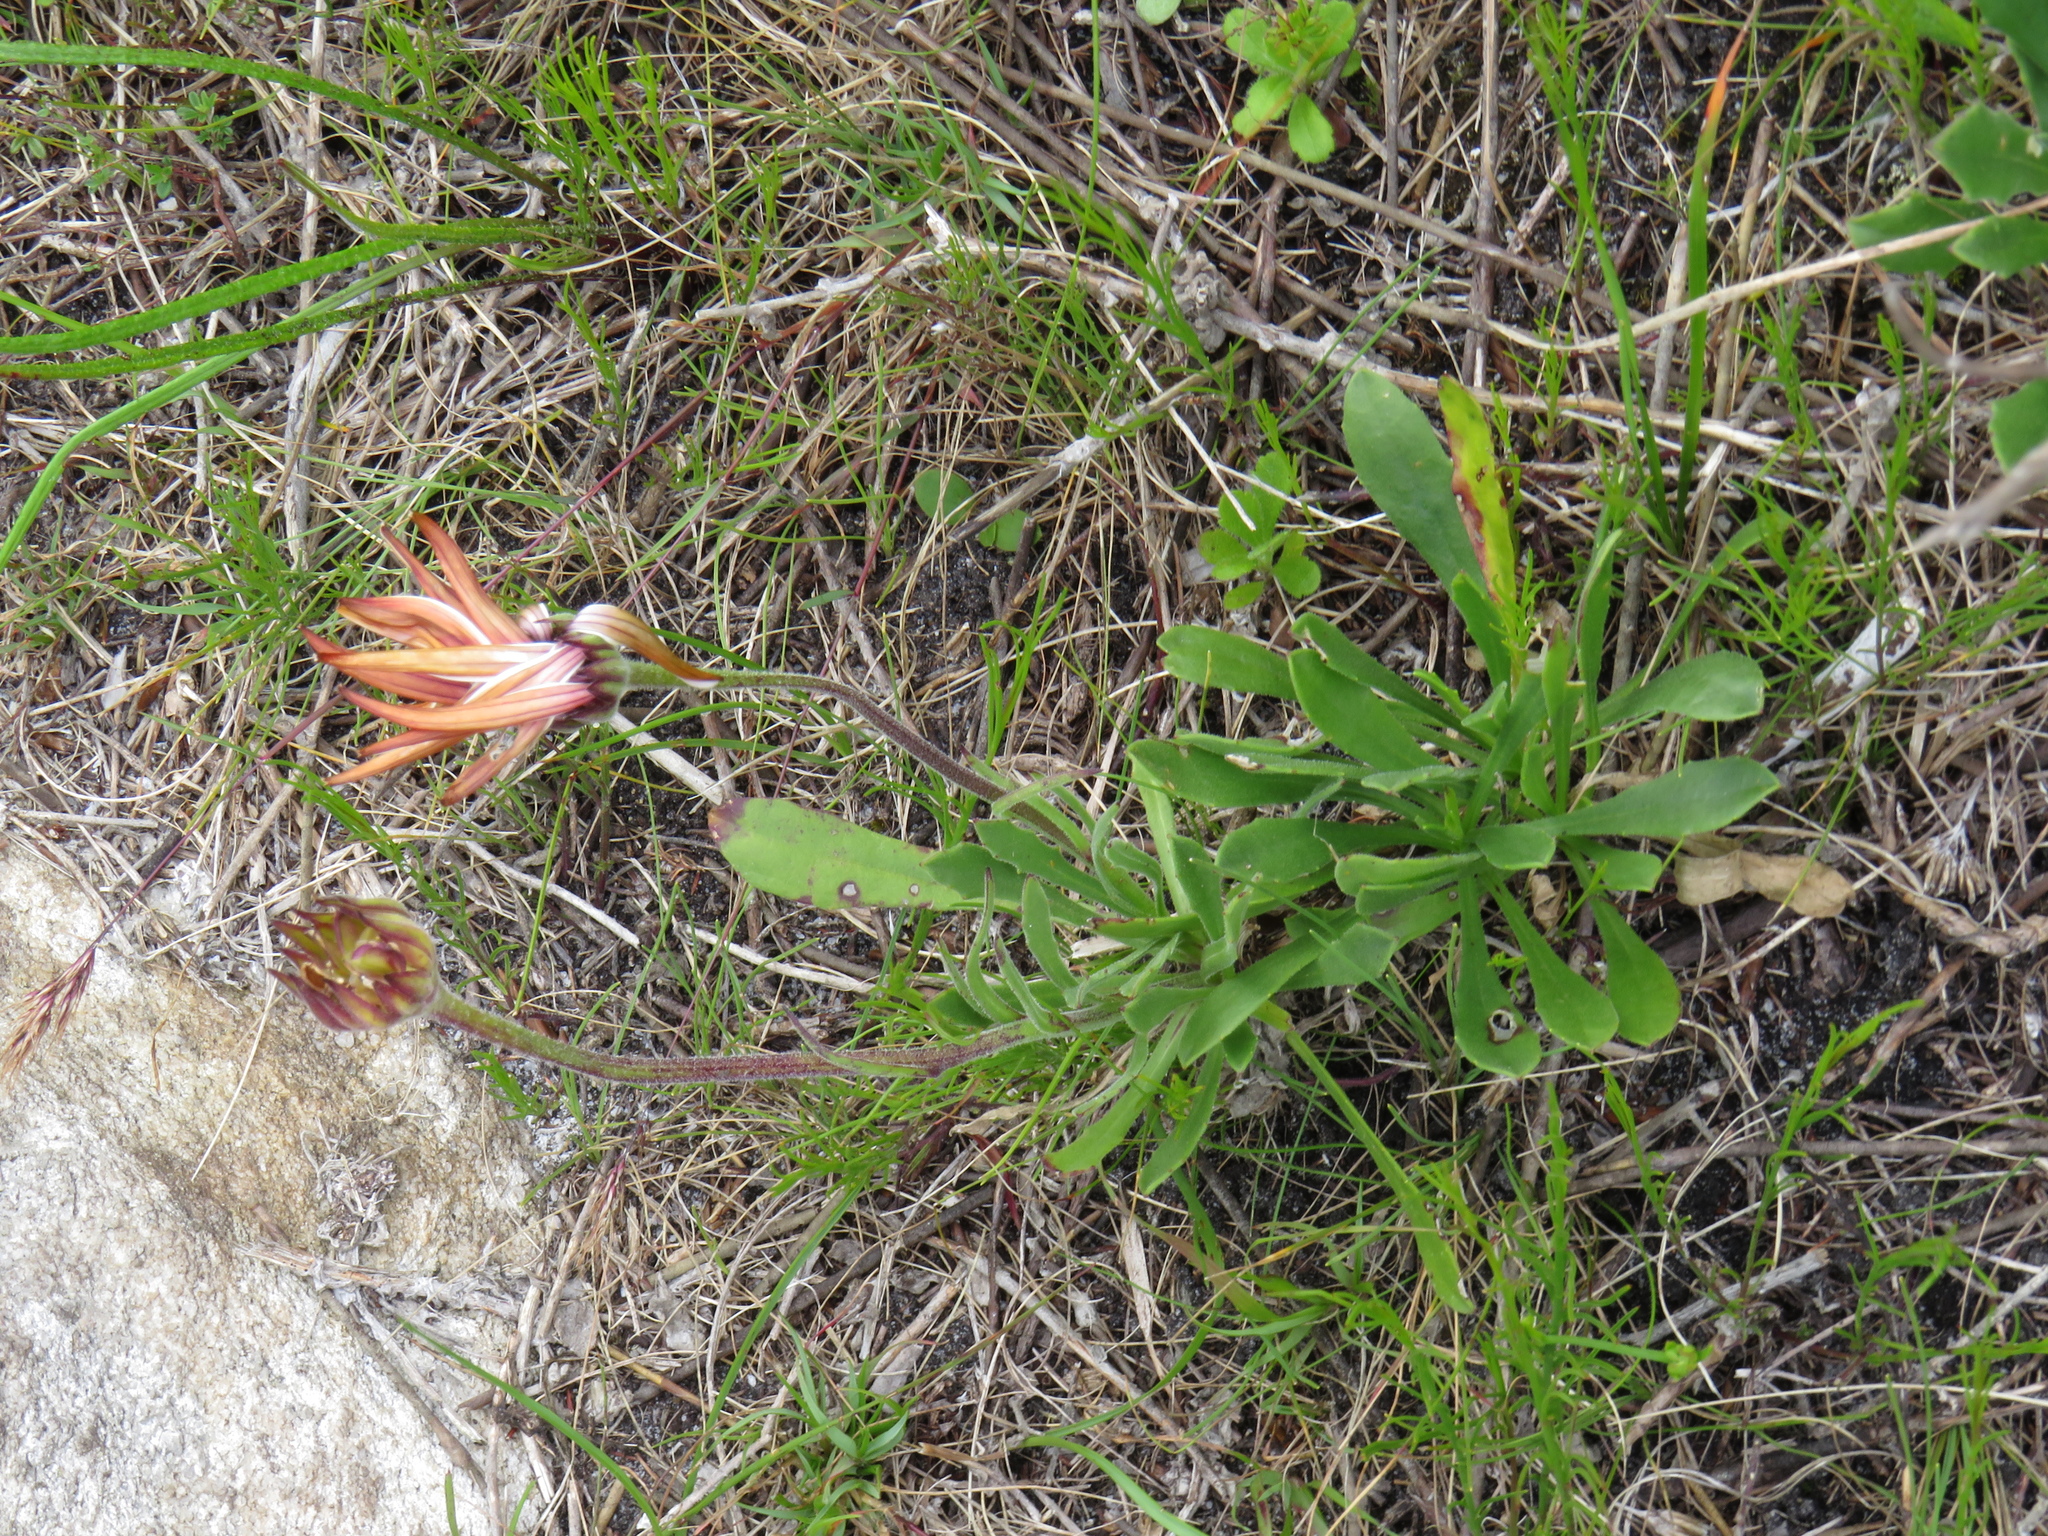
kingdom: Plantae
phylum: Tracheophyta
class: Magnoliopsida
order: Asterales
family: Asteraceae
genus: Dimorphotheca
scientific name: Dimorphotheca nudicaulis
